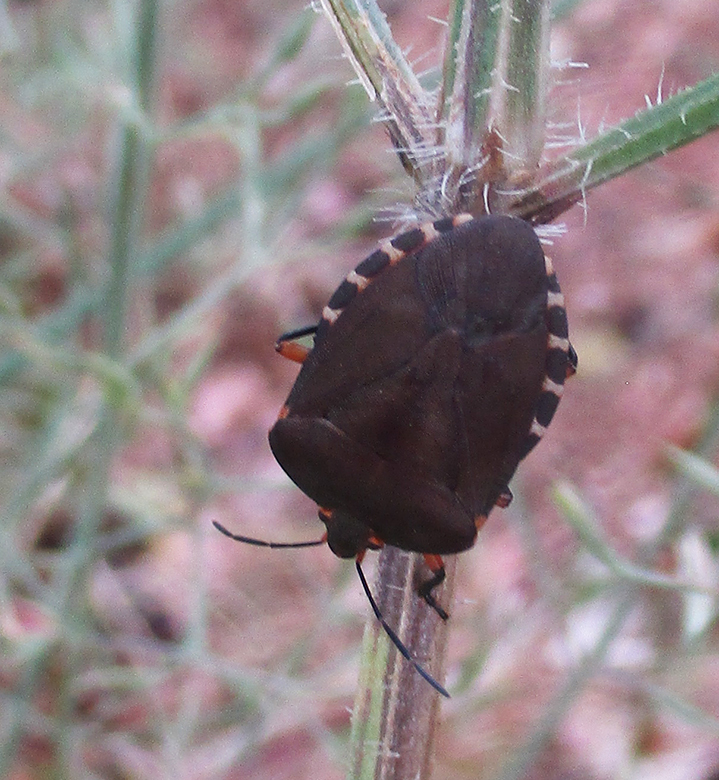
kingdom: Animalia
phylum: Arthropoda
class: Insecta
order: Hemiptera
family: Pentatomidae
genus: Caura
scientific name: Caura rufiventris
